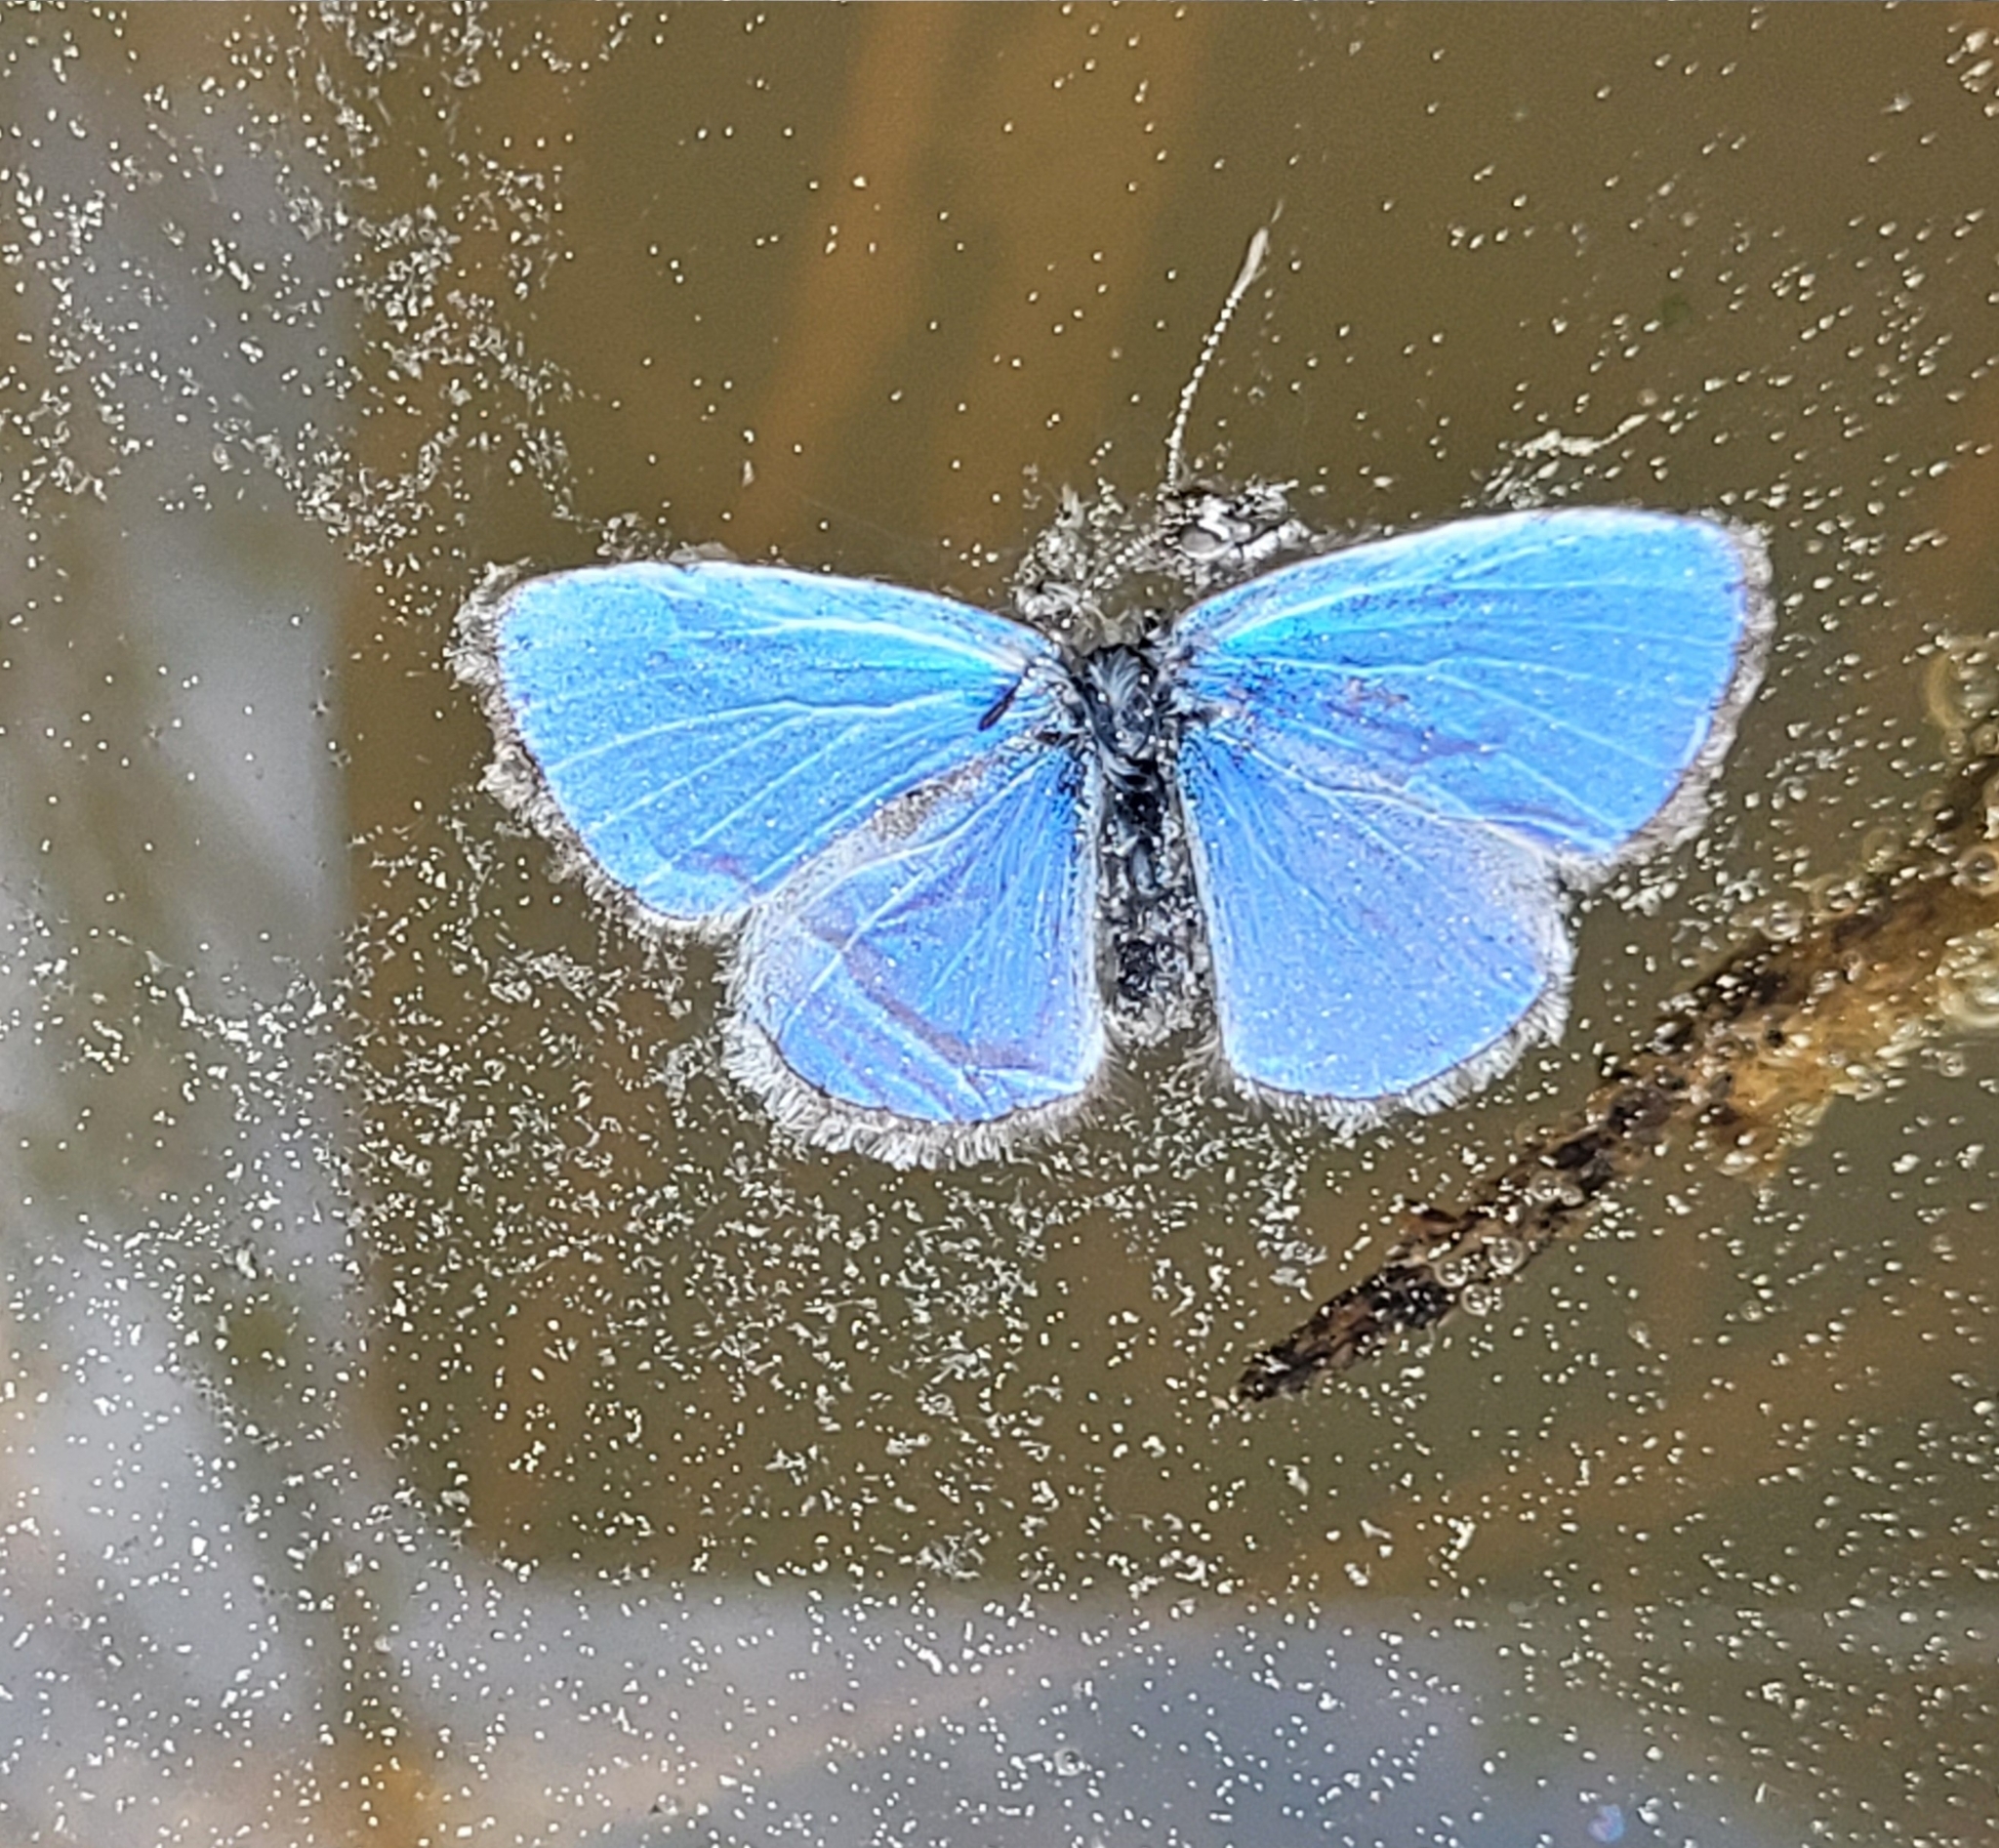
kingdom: Animalia
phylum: Arthropoda
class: Insecta
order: Lepidoptera
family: Lycaenidae
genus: Celastrina
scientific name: Celastrina lucia
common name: Lucia azure
